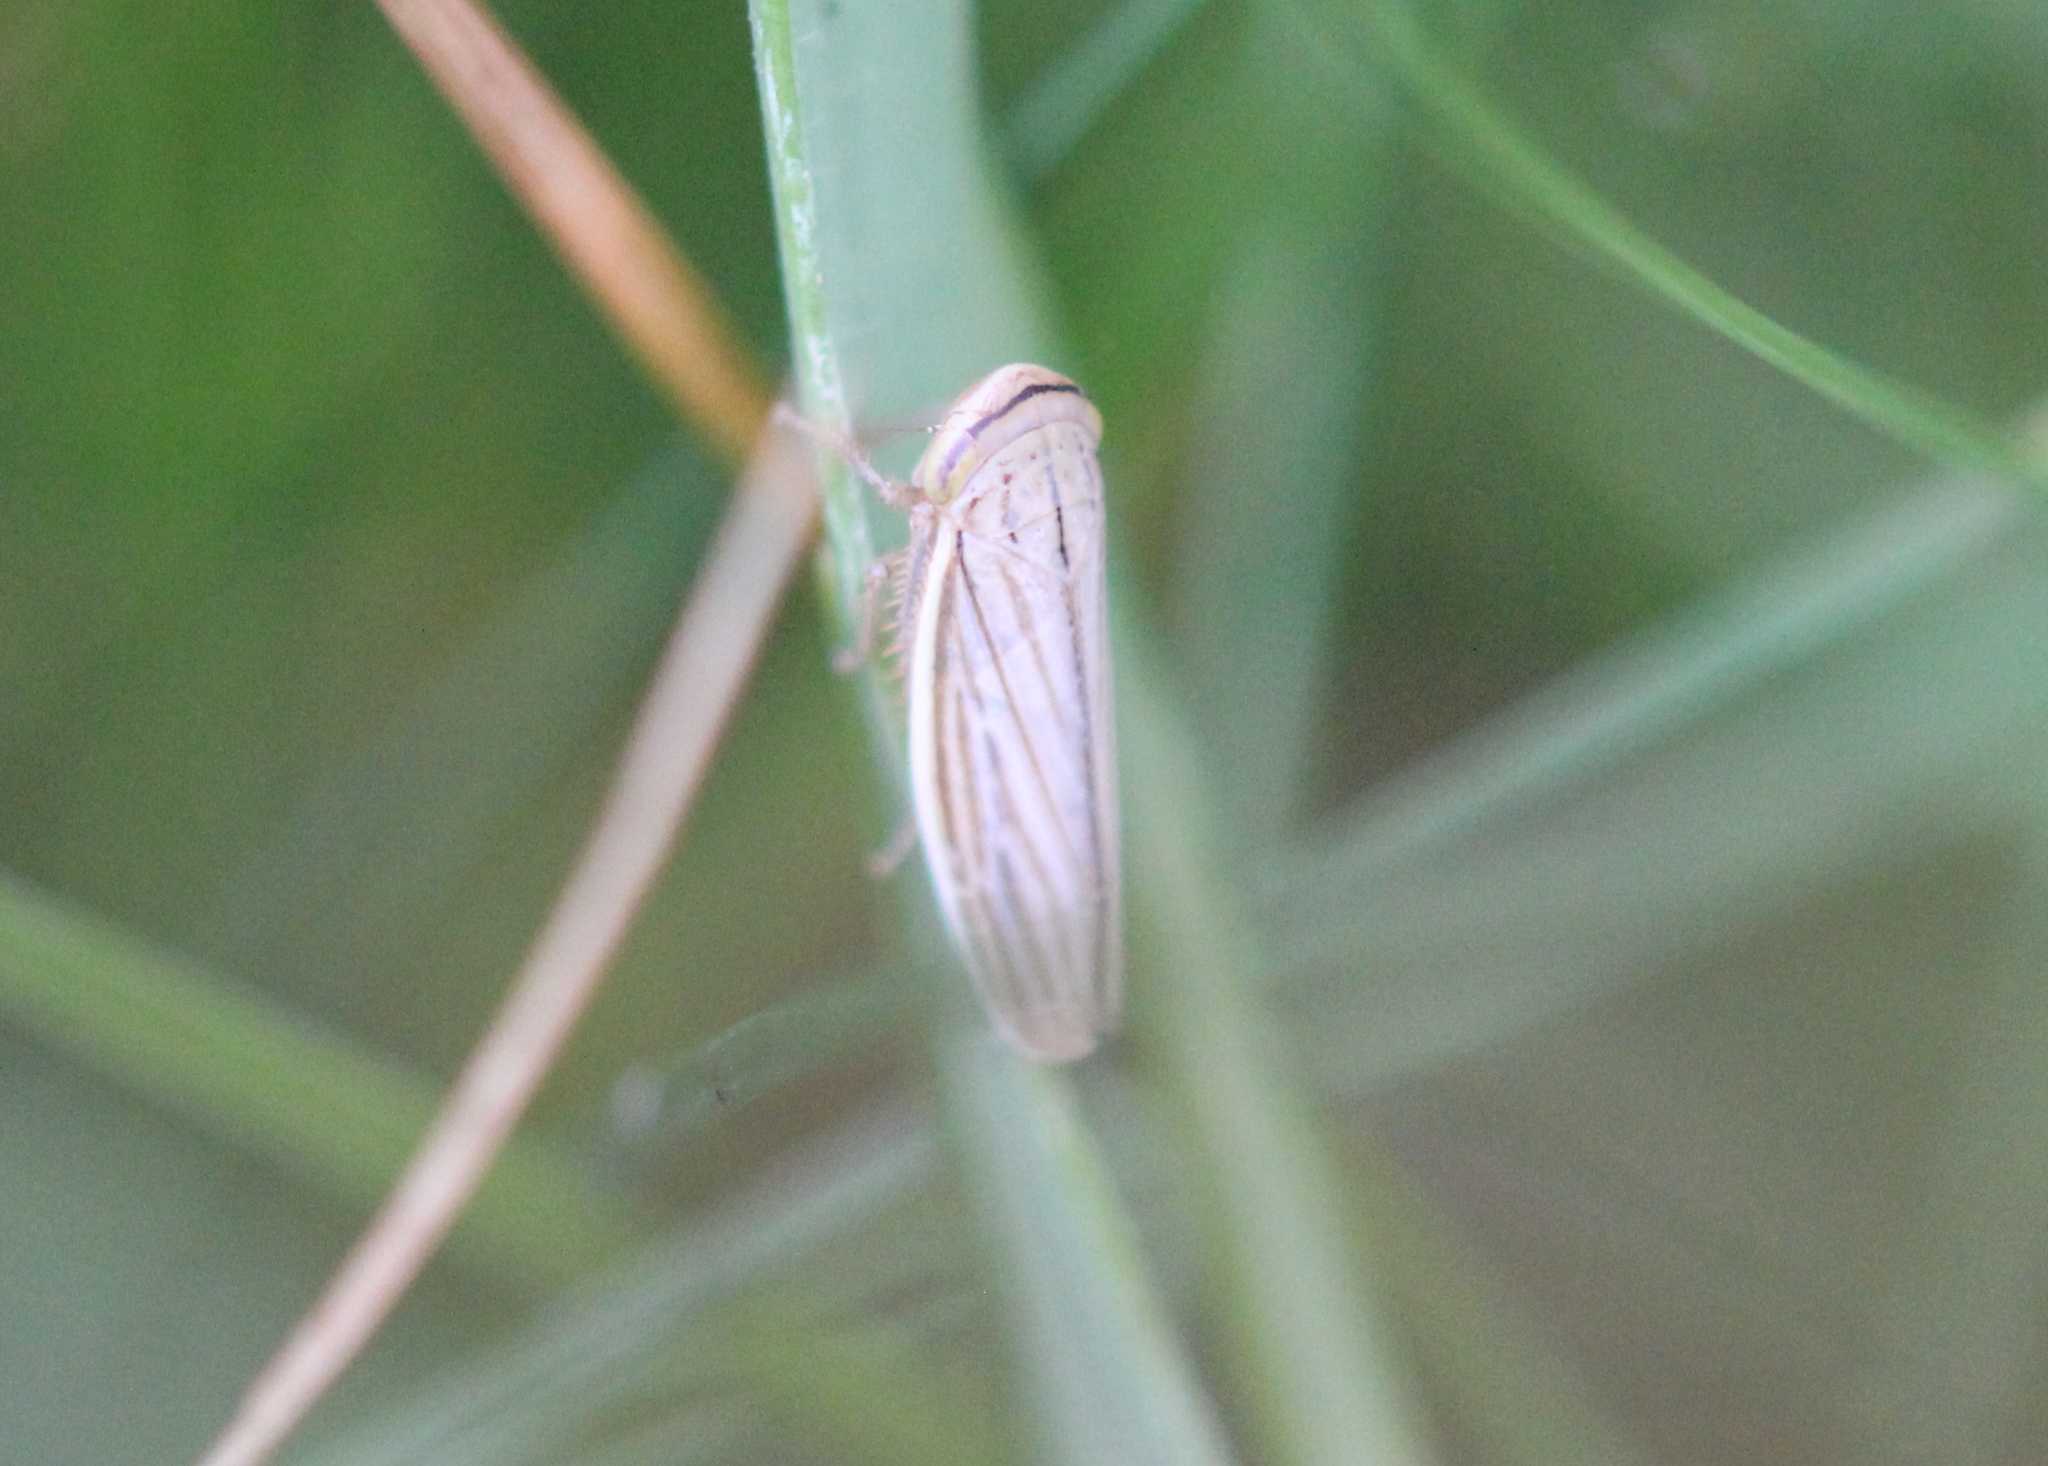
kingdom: Animalia
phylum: Arthropoda
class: Insecta
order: Hemiptera
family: Cicadellidae
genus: Athysanus
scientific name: Athysanus argentarius
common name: Silver leafhopper
